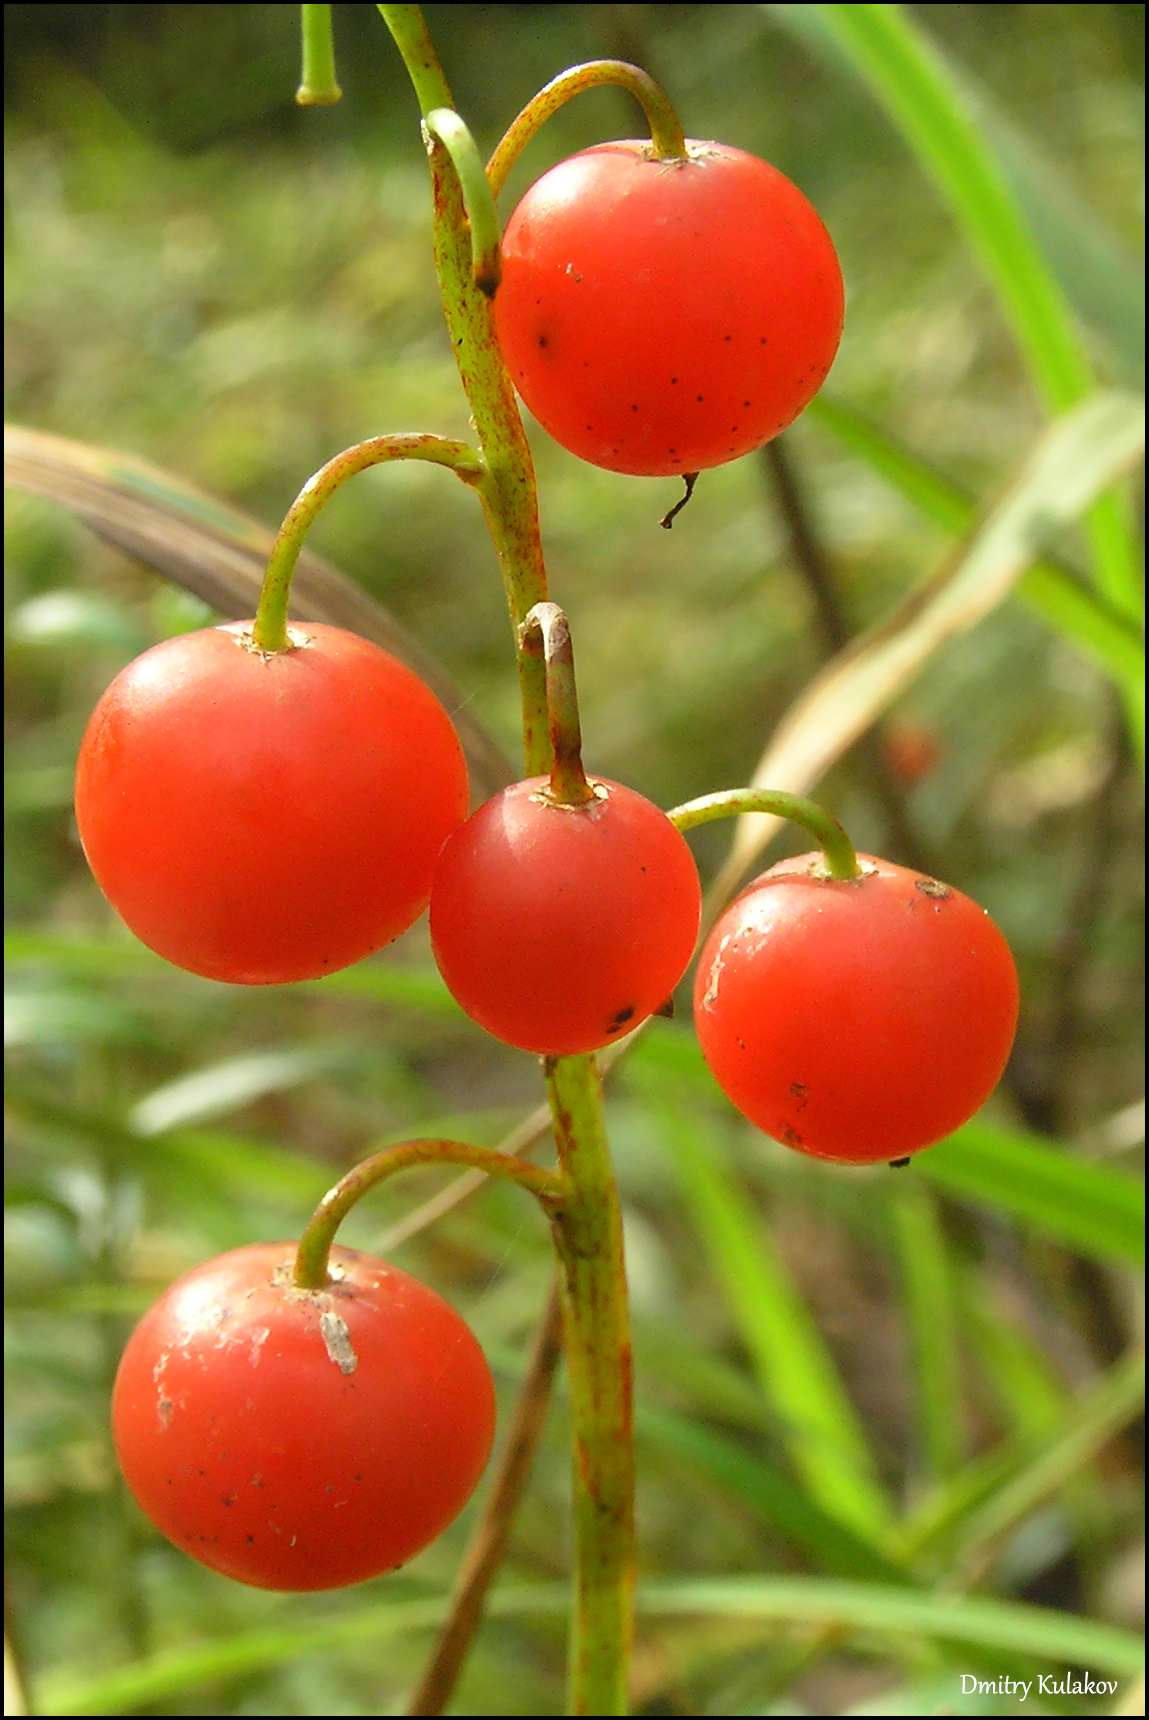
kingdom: Plantae
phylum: Tracheophyta
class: Liliopsida
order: Asparagales
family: Asparagaceae
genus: Convallaria
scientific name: Convallaria majalis
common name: Lily-of-the-valley
